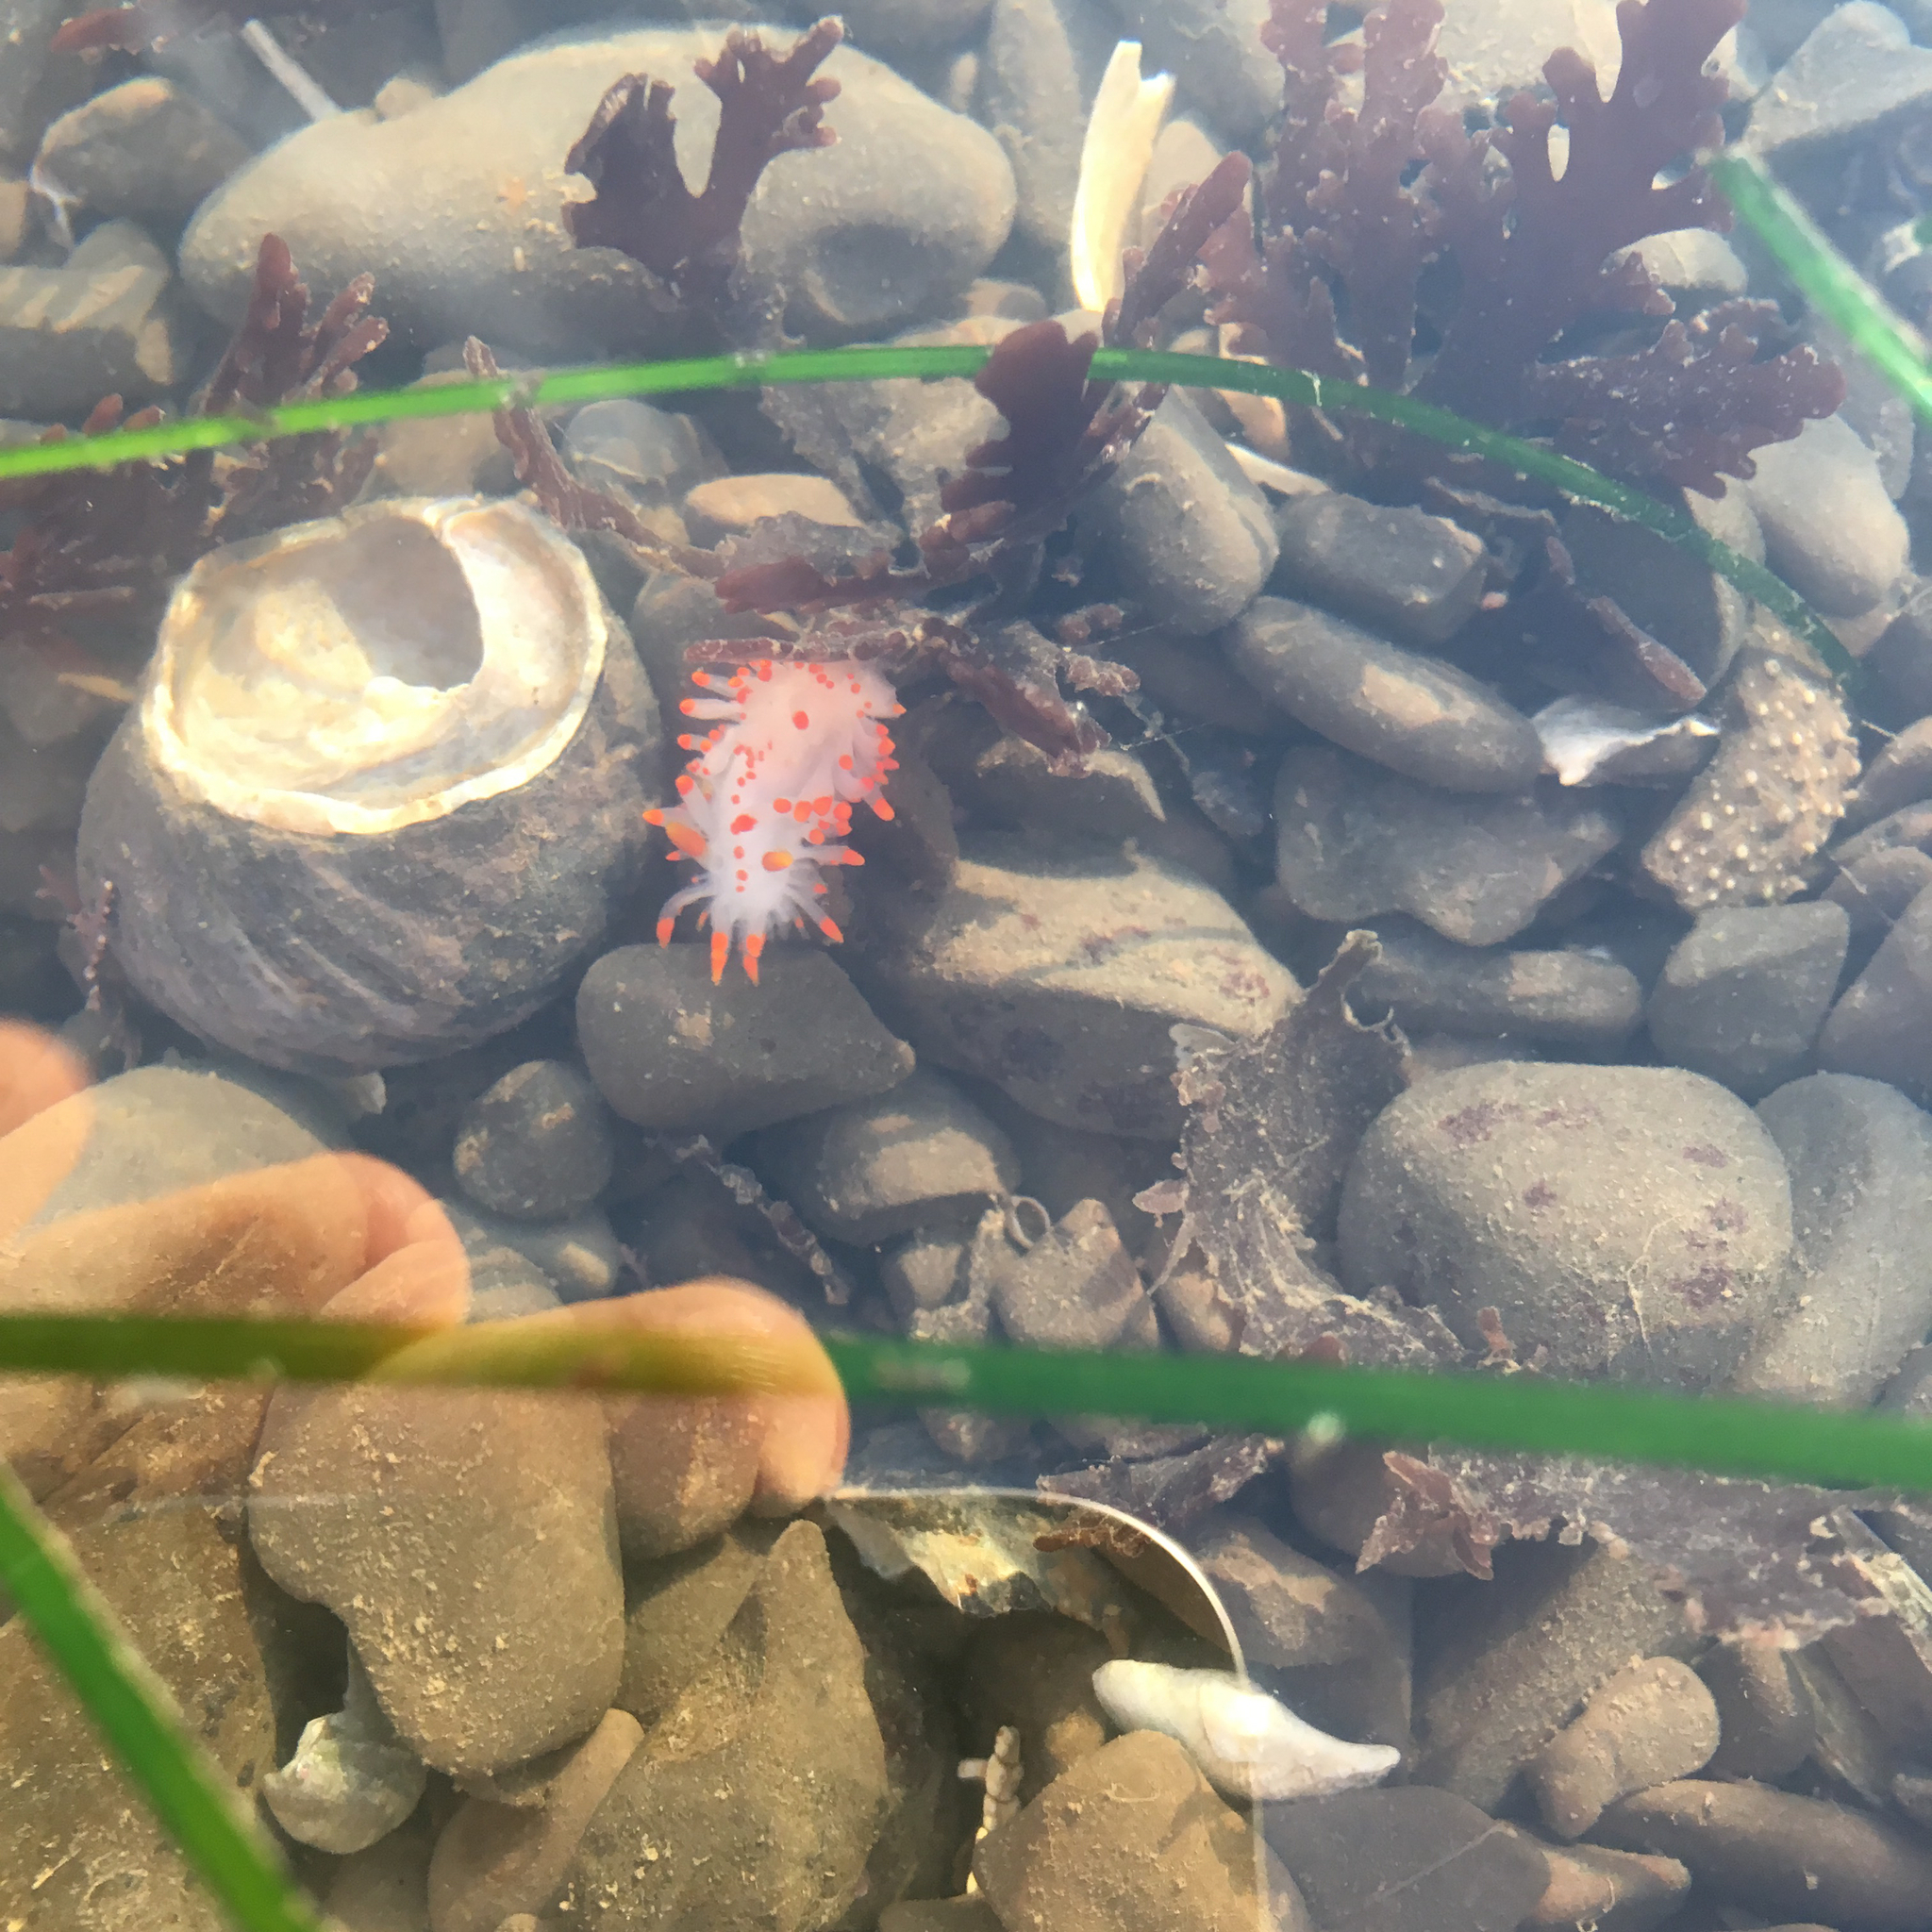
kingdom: Animalia
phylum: Mollusca
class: Gastropoda
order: Nudibranchia
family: Polyceridae
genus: Limacia
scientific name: Limacia mcdonaldi
